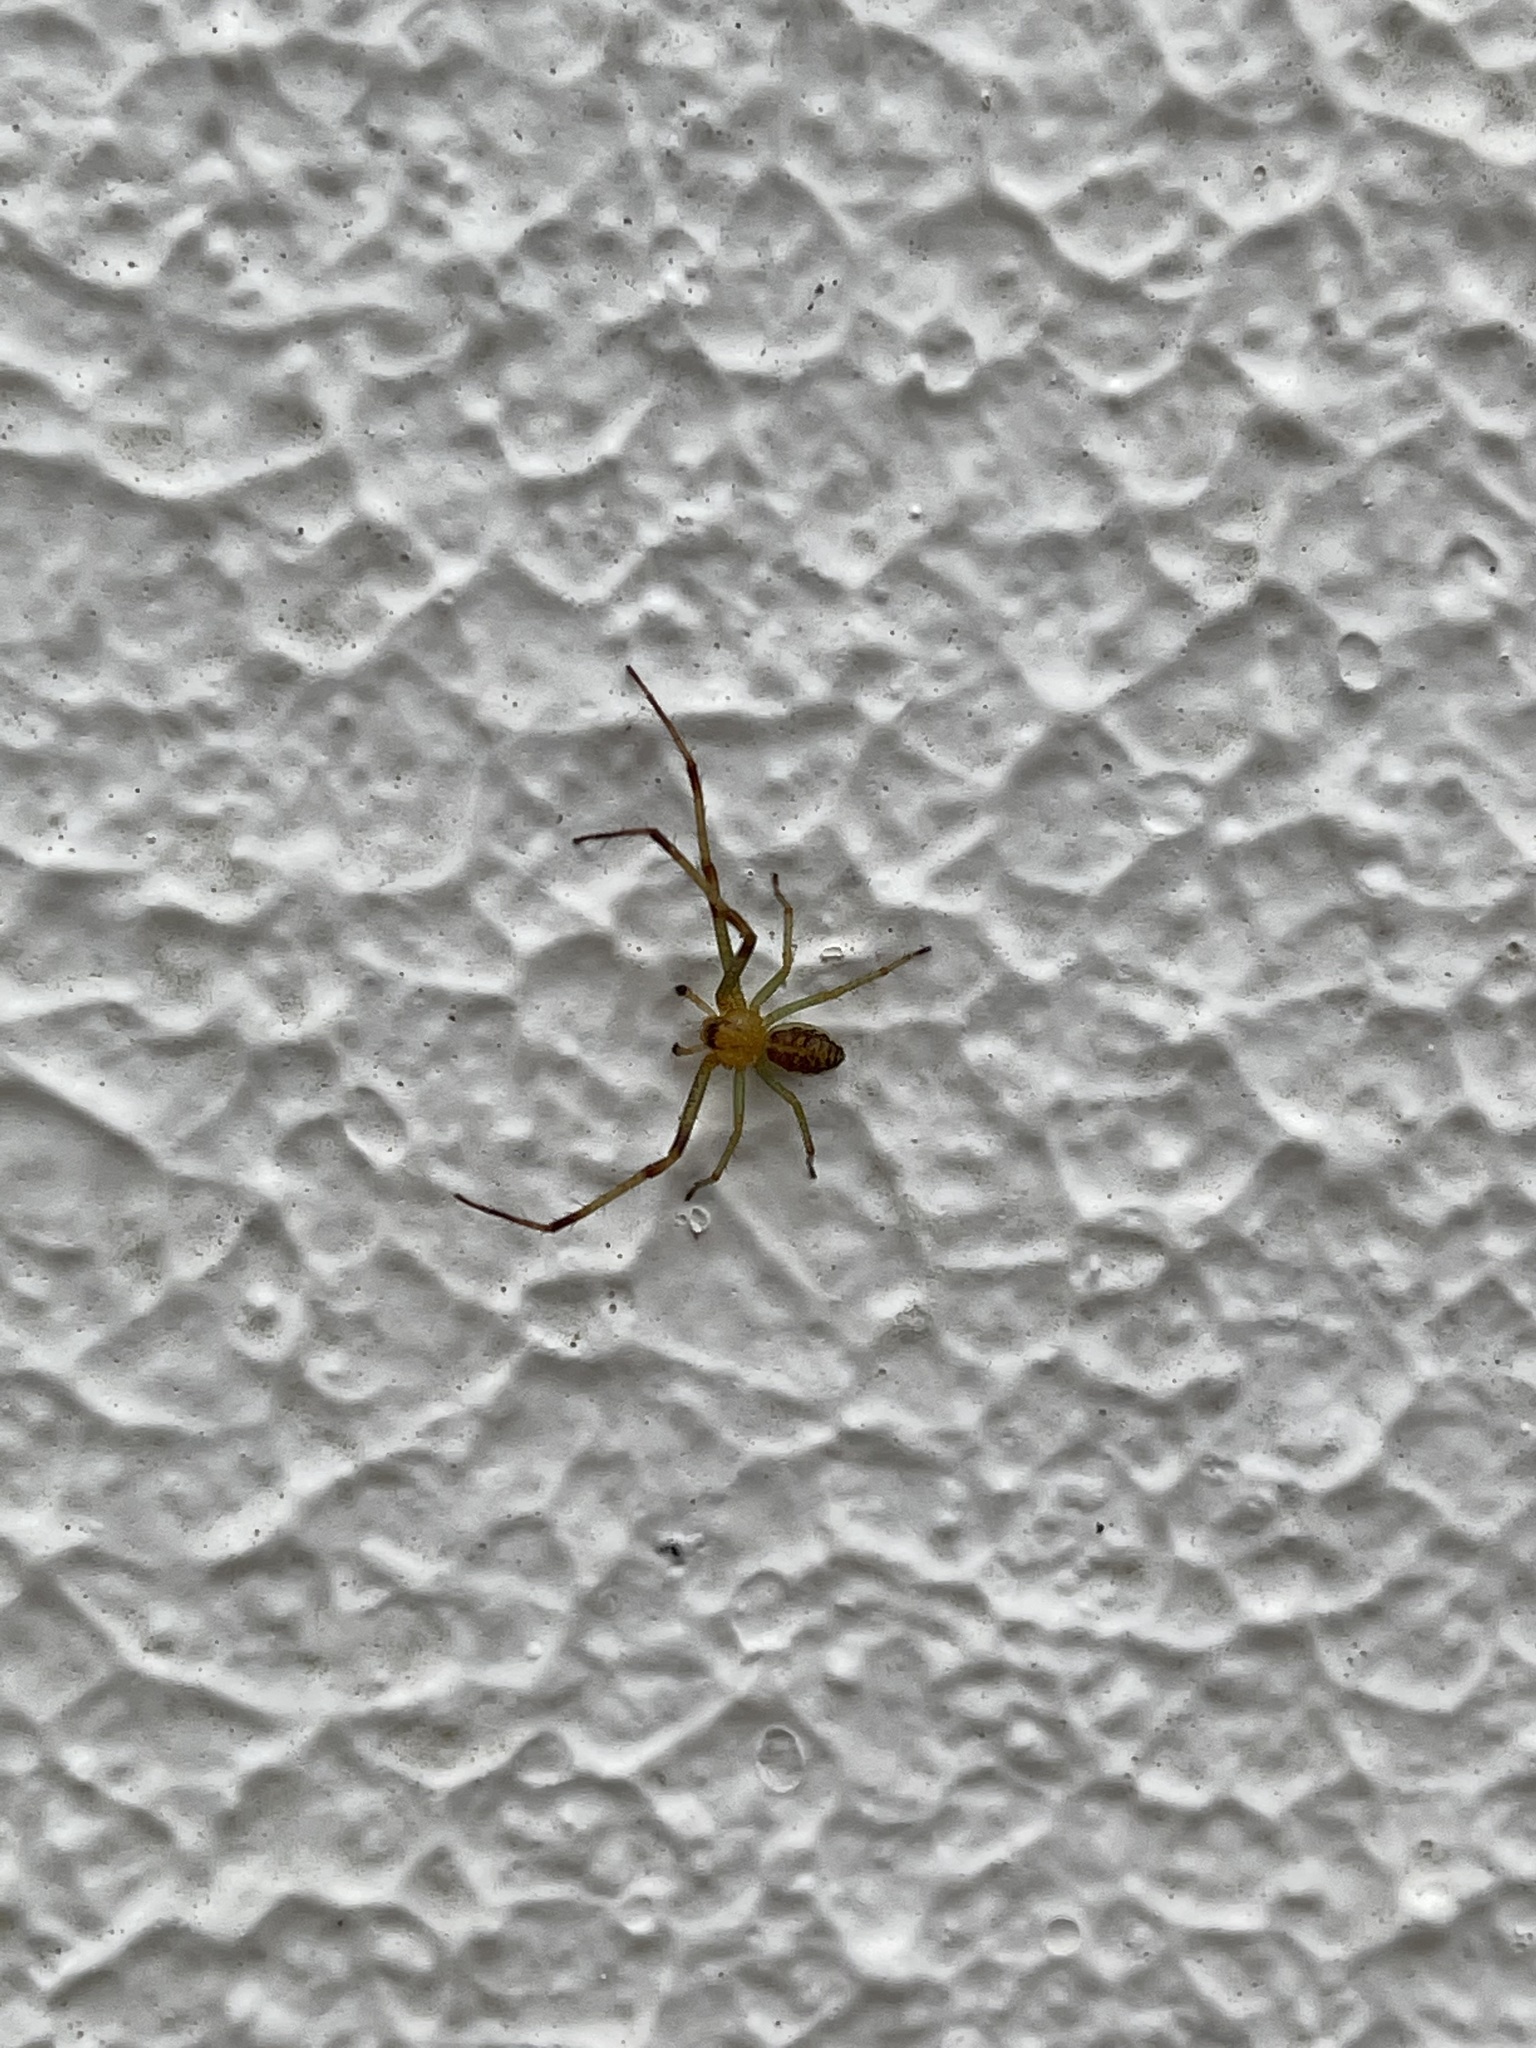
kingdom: Animalia
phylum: Arthropoda
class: Arachnida
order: Araneae
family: Thomisidae
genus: Diaea
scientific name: Diaea dorsata
